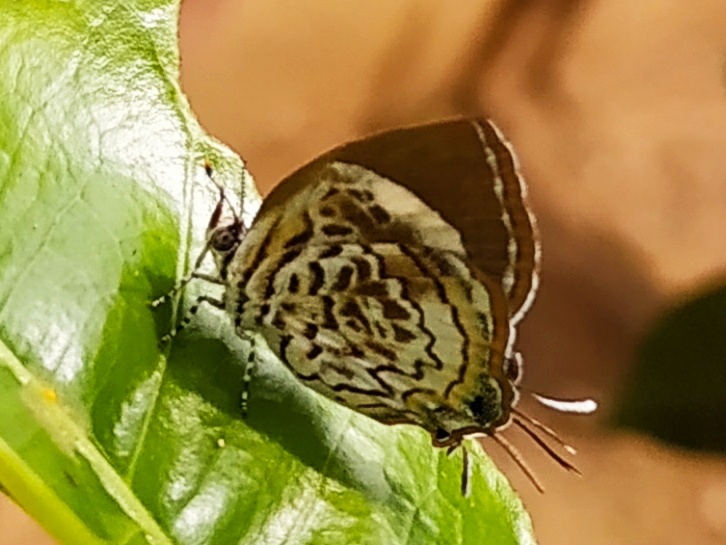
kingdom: Animalia
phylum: Arthropoda
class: Insecta
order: Lepidoptera
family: Lycaenidae
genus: Rathinda
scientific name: Rathinda amor
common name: Monkey puzzle
